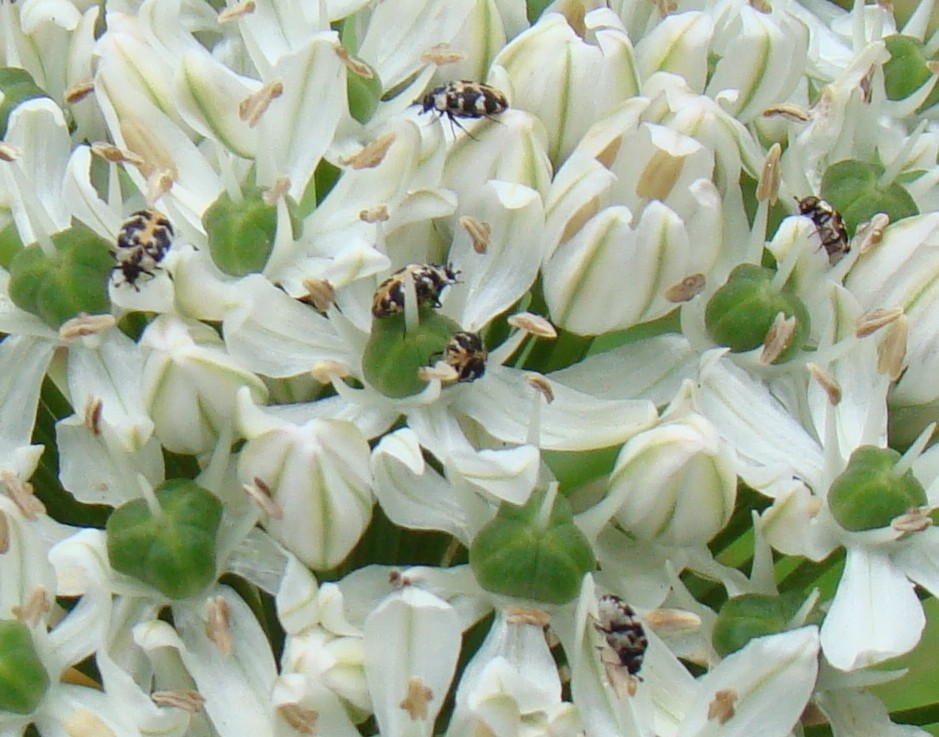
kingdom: Animalia
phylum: Arthropoda
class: Insecta
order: Coleoptera
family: Dermestidae
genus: Anthrenus
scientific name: Anthrenus scrophulariae
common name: Buffalo carpet beetle
